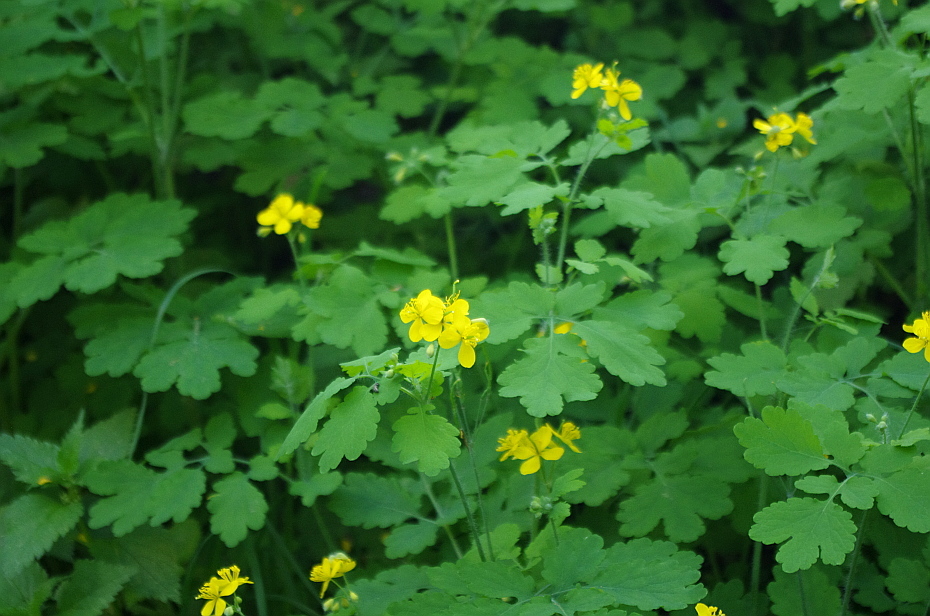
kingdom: Plantae
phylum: Tracheophyta
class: Magnoliopsida
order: Ranunculales
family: Papaveraceae
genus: Chelidonium
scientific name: Chelidonium majus
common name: Greater celandine
